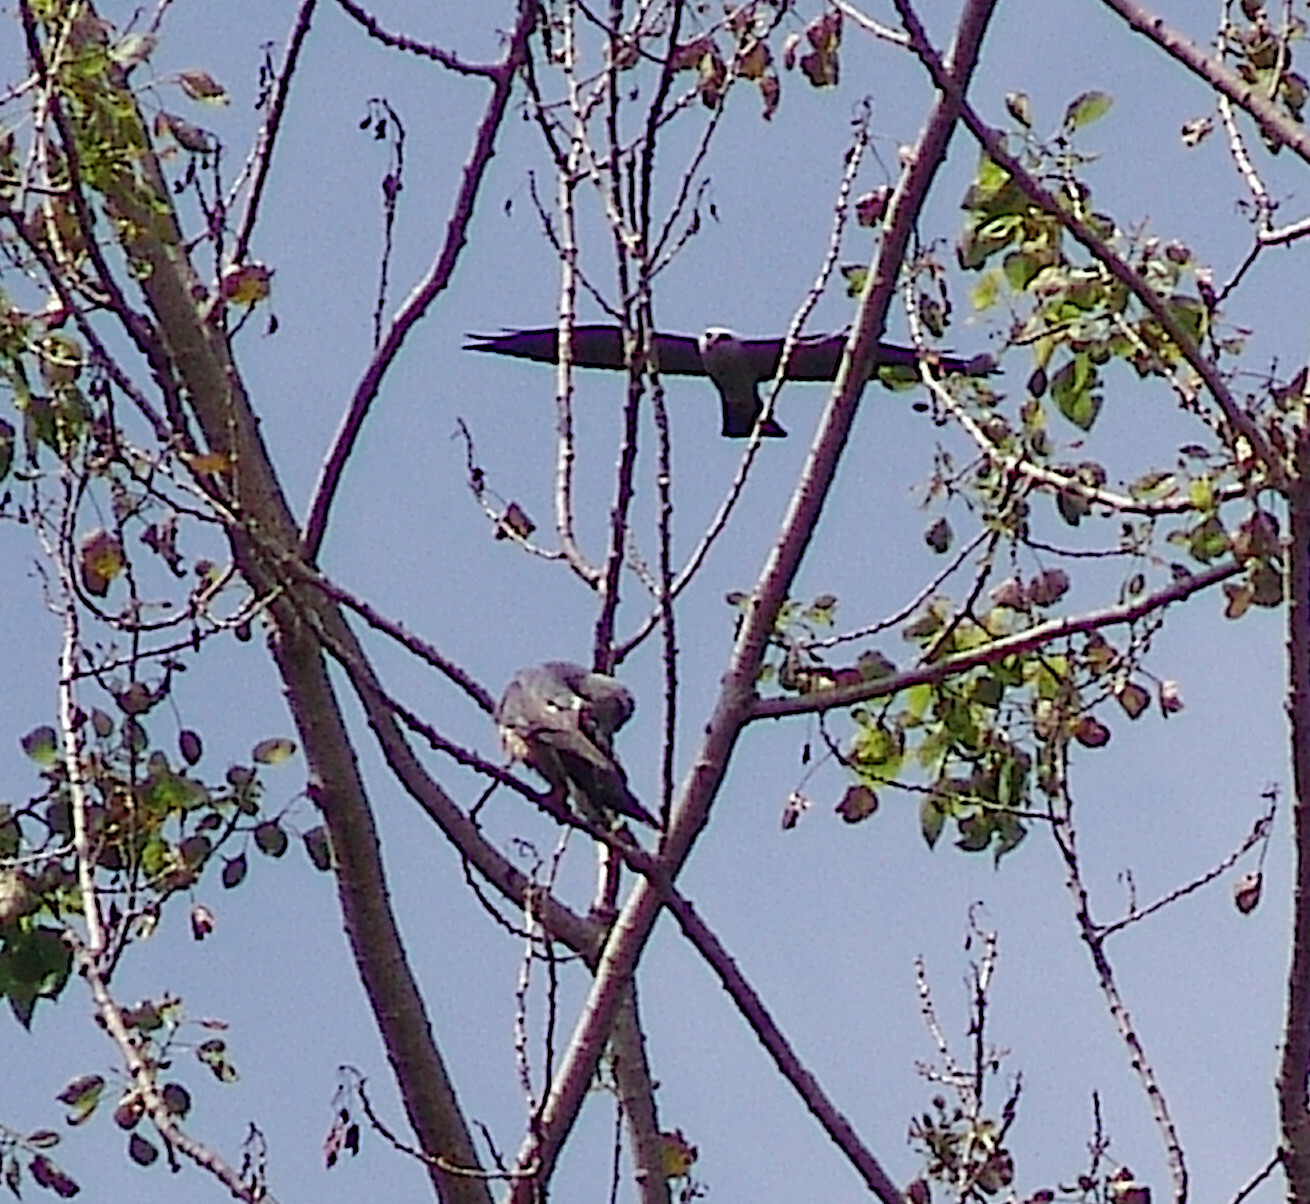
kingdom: Animalia
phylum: Chordata
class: Aves
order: Accipitriformes
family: Accipitridae
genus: Ictinia
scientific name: Ictinia mississippiensis
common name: Mississippi kite
